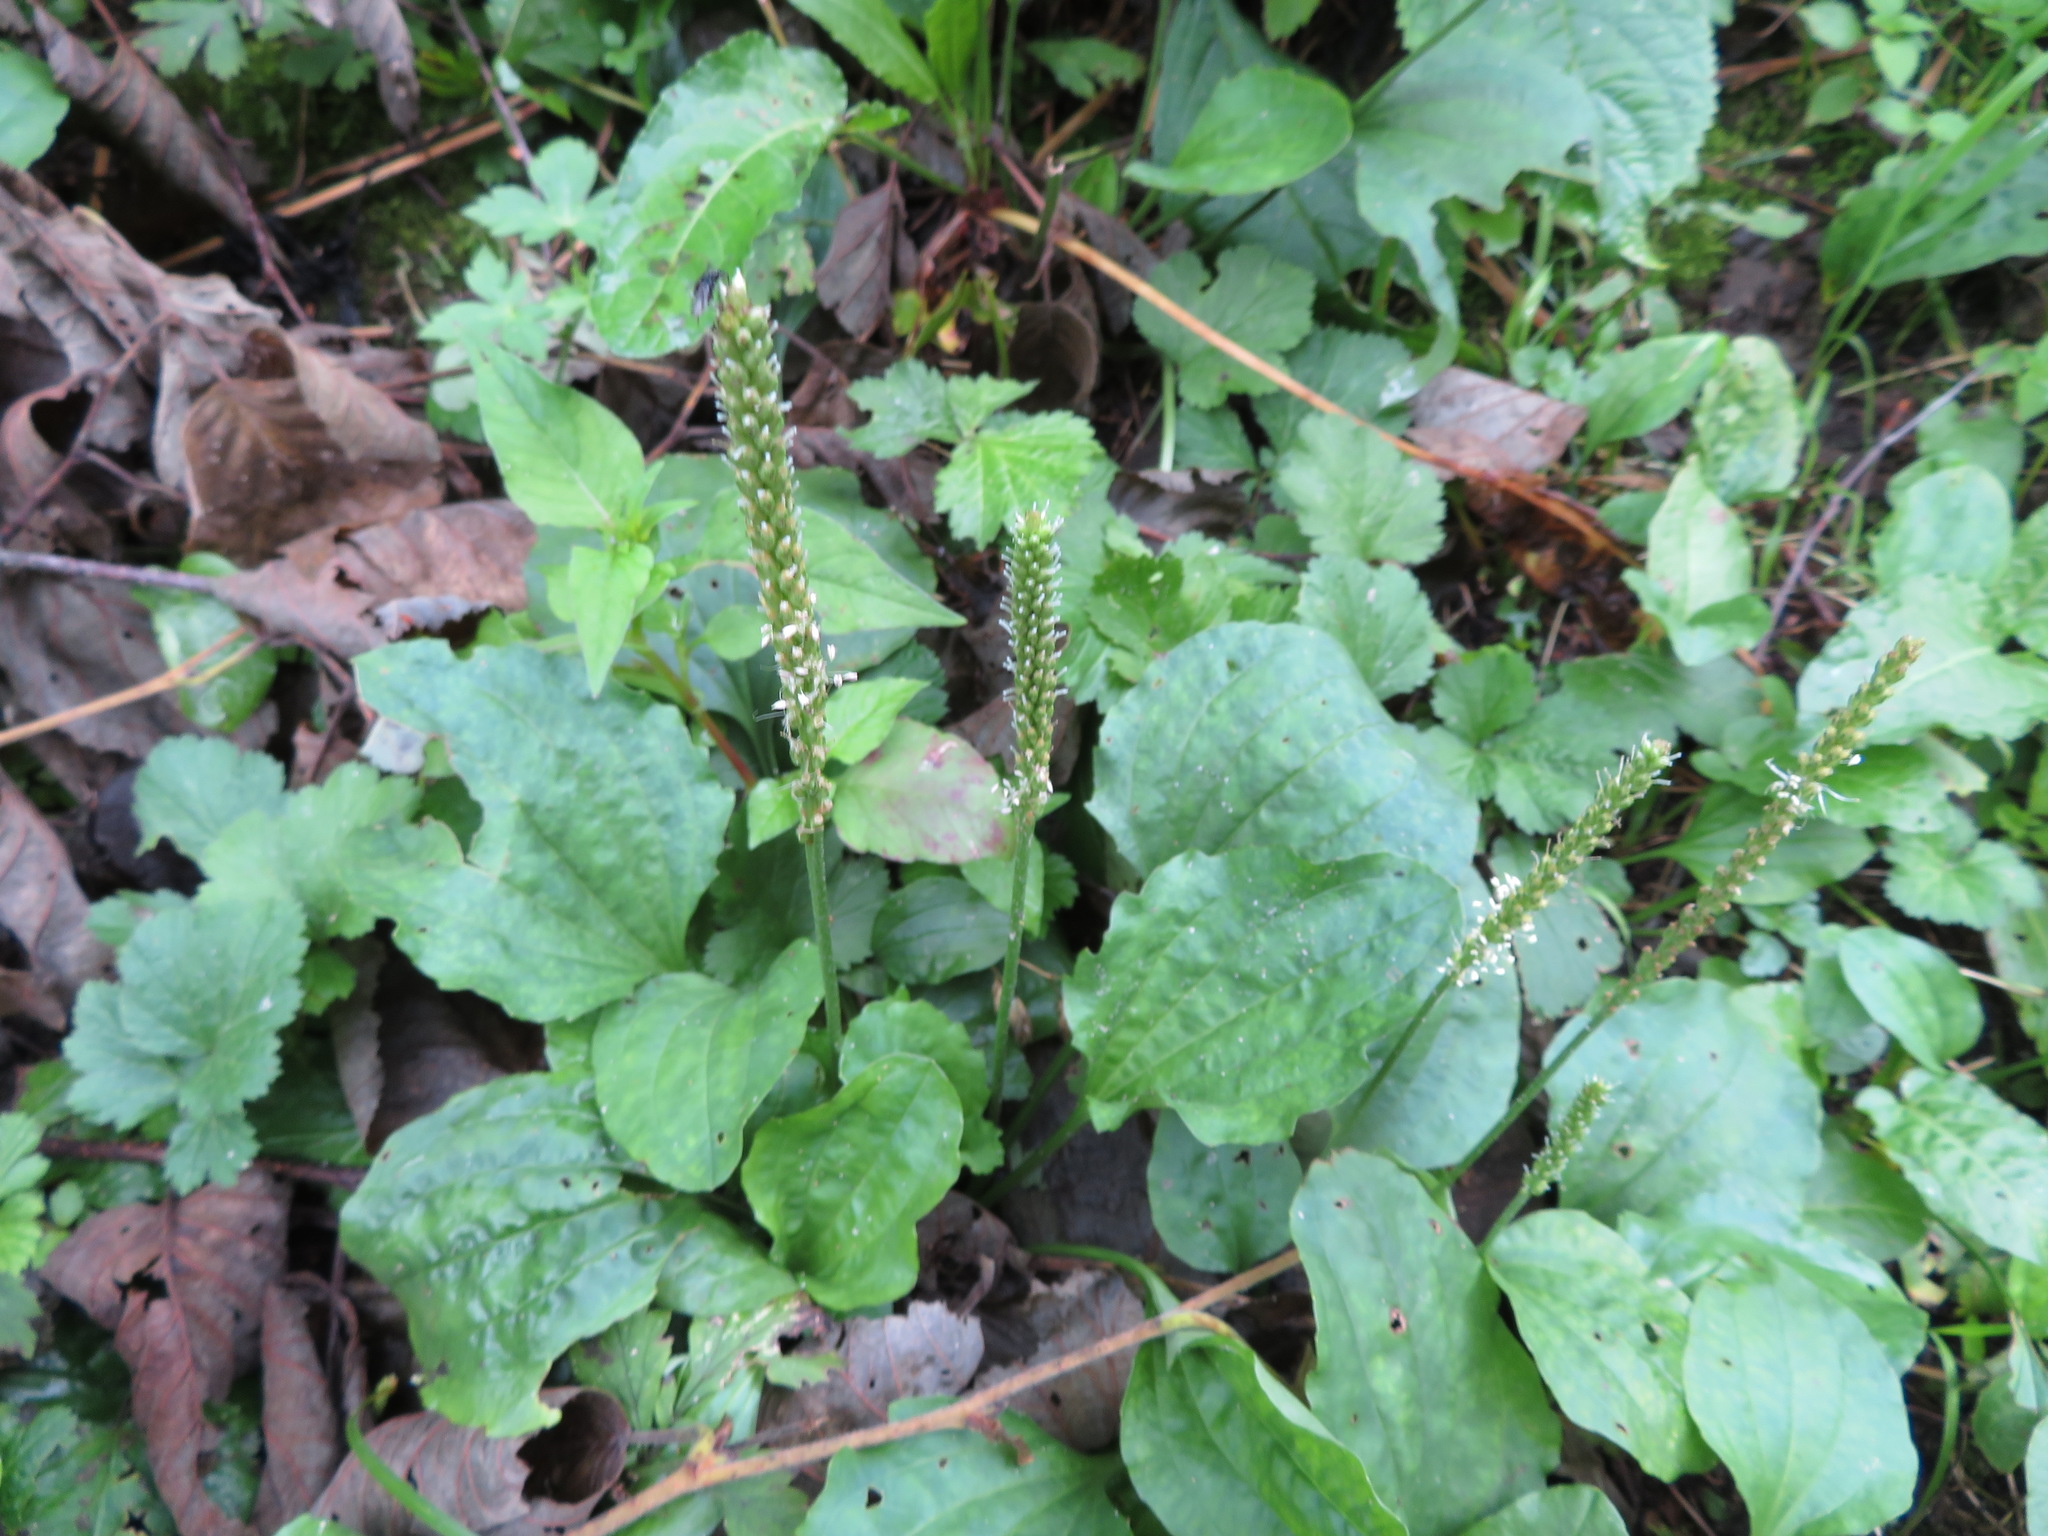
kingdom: Plantae
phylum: Tracheophyta
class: Magnoliopsida
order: Lamiales
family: Plantaginaceae
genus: Plantago
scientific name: Plantago major
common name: Common plantain
